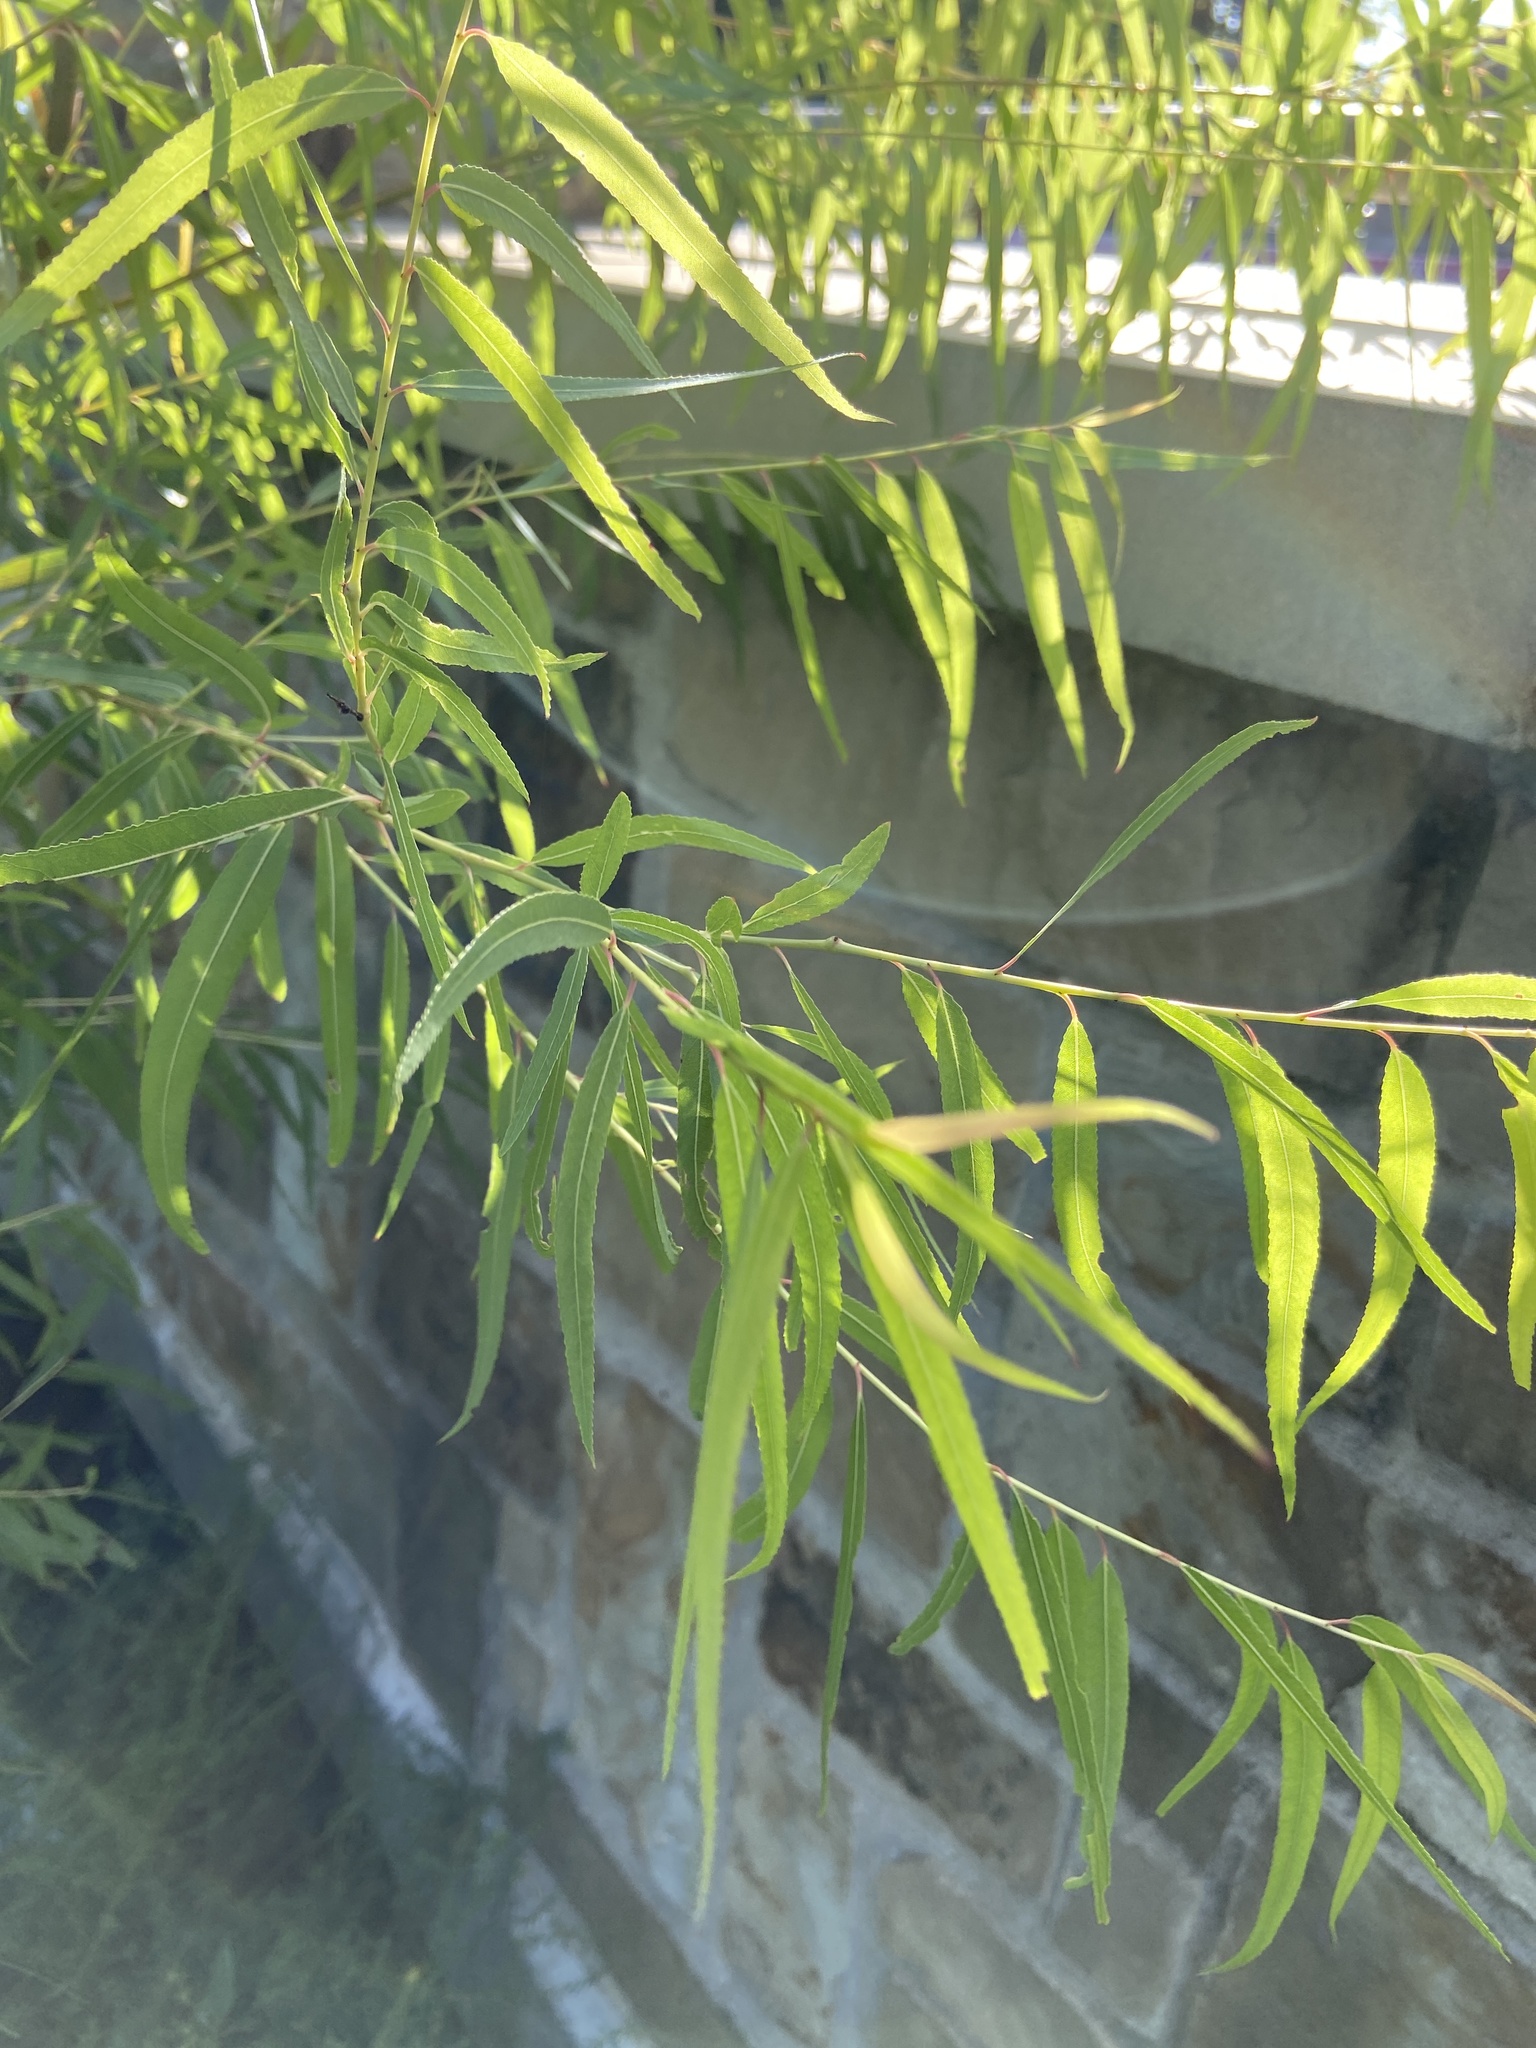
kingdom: Plantae
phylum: Tracheophyta
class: Magnoliopsida
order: Malpighiales
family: Salicaceae
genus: Salix
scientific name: Salix nigra
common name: Black willow
